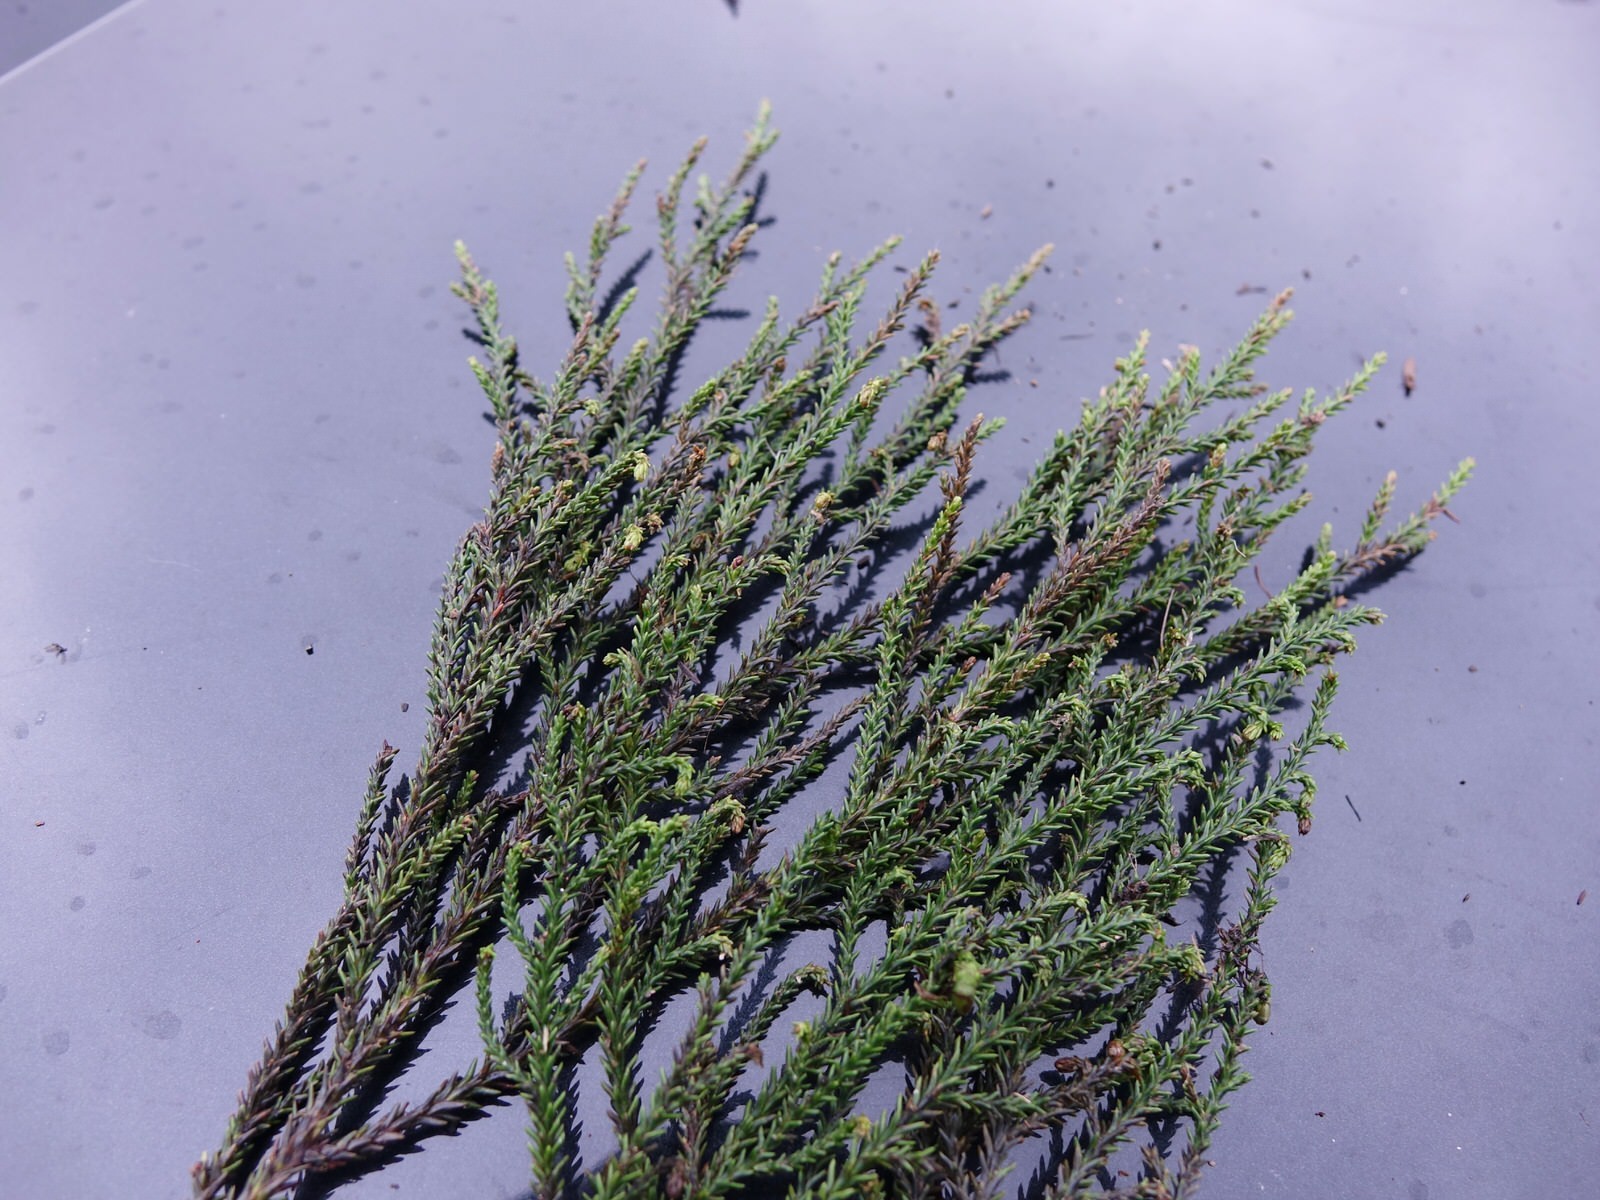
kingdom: Plantae
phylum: Tracheophyta
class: Pinopsida
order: Pinales
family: Podocarpaceae
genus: Dacrydium
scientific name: Dacrydium cupressinum
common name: Red pine
